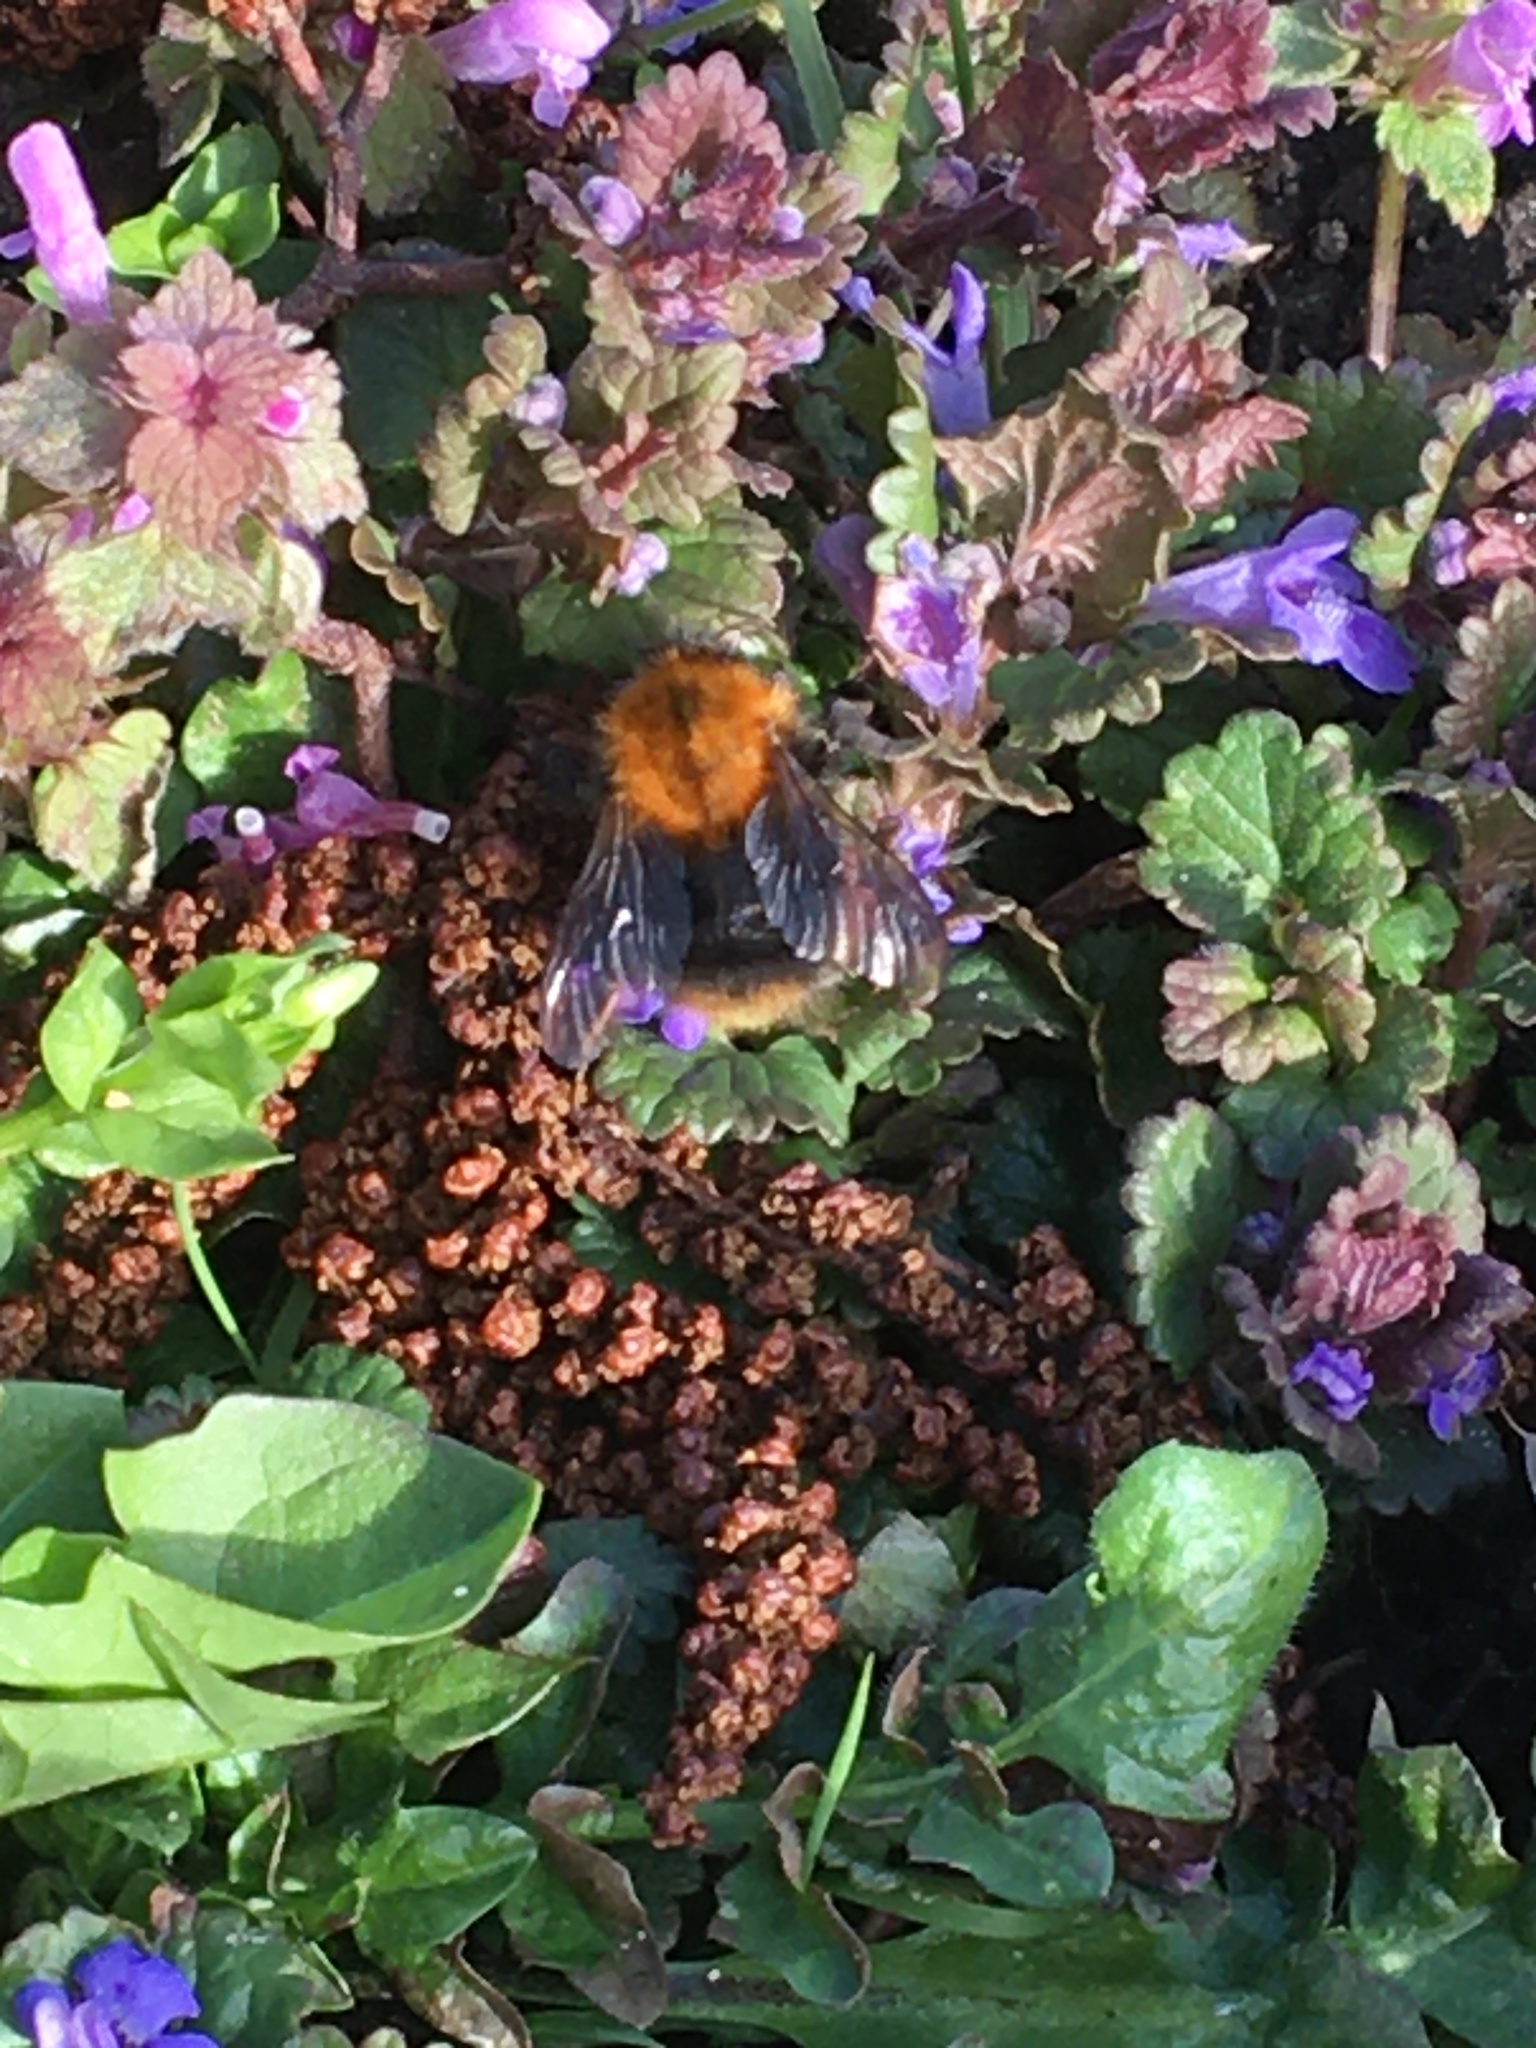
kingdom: Animalia
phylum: Arthropoda
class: Insecta
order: Hymenoptera
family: Apidae
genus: Bombus
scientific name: Bombus pascuorum
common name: Common carder bee
